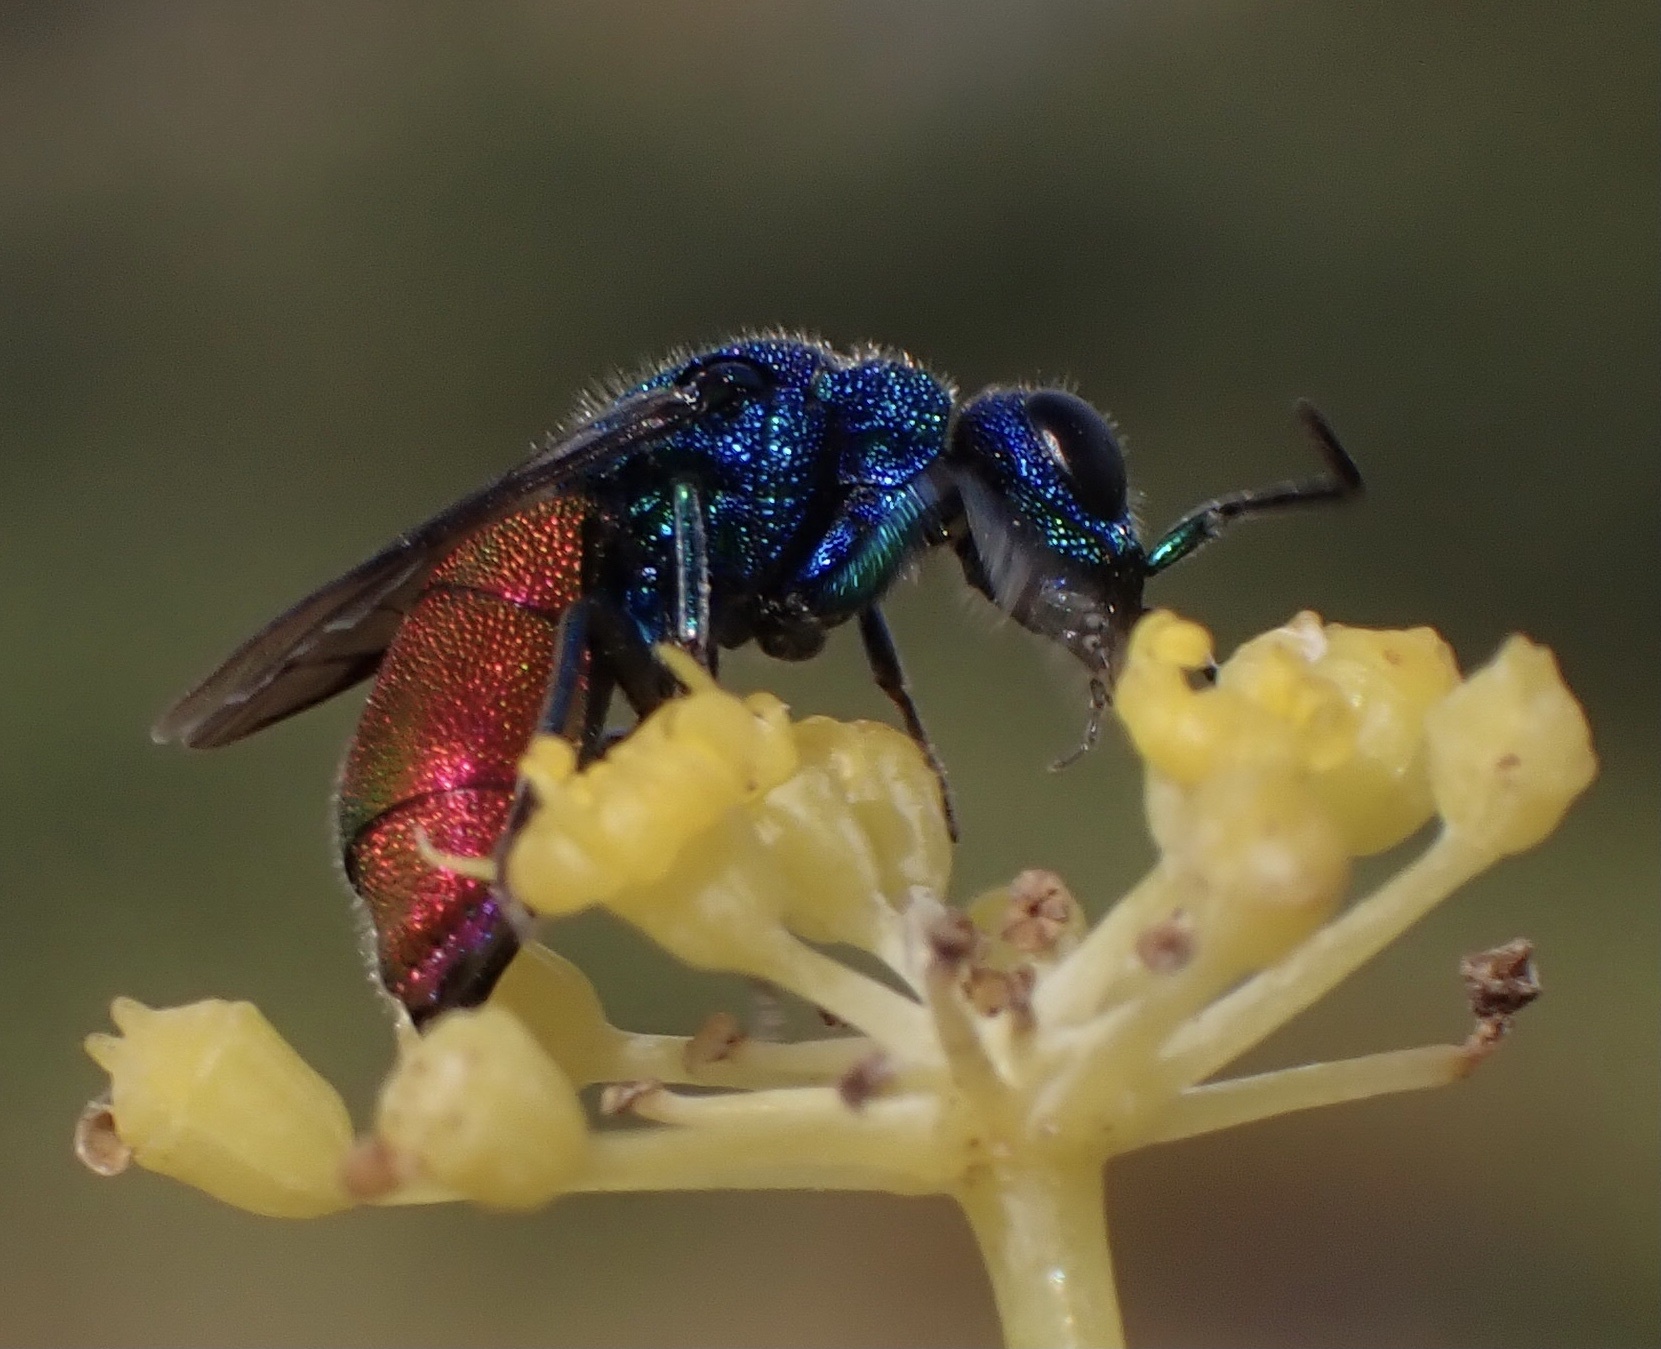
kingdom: Animalia
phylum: Arthropoda
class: Insecta
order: Hymenoptera
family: Chrysididae
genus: Chrysis
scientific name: Chrysis inaequalis
